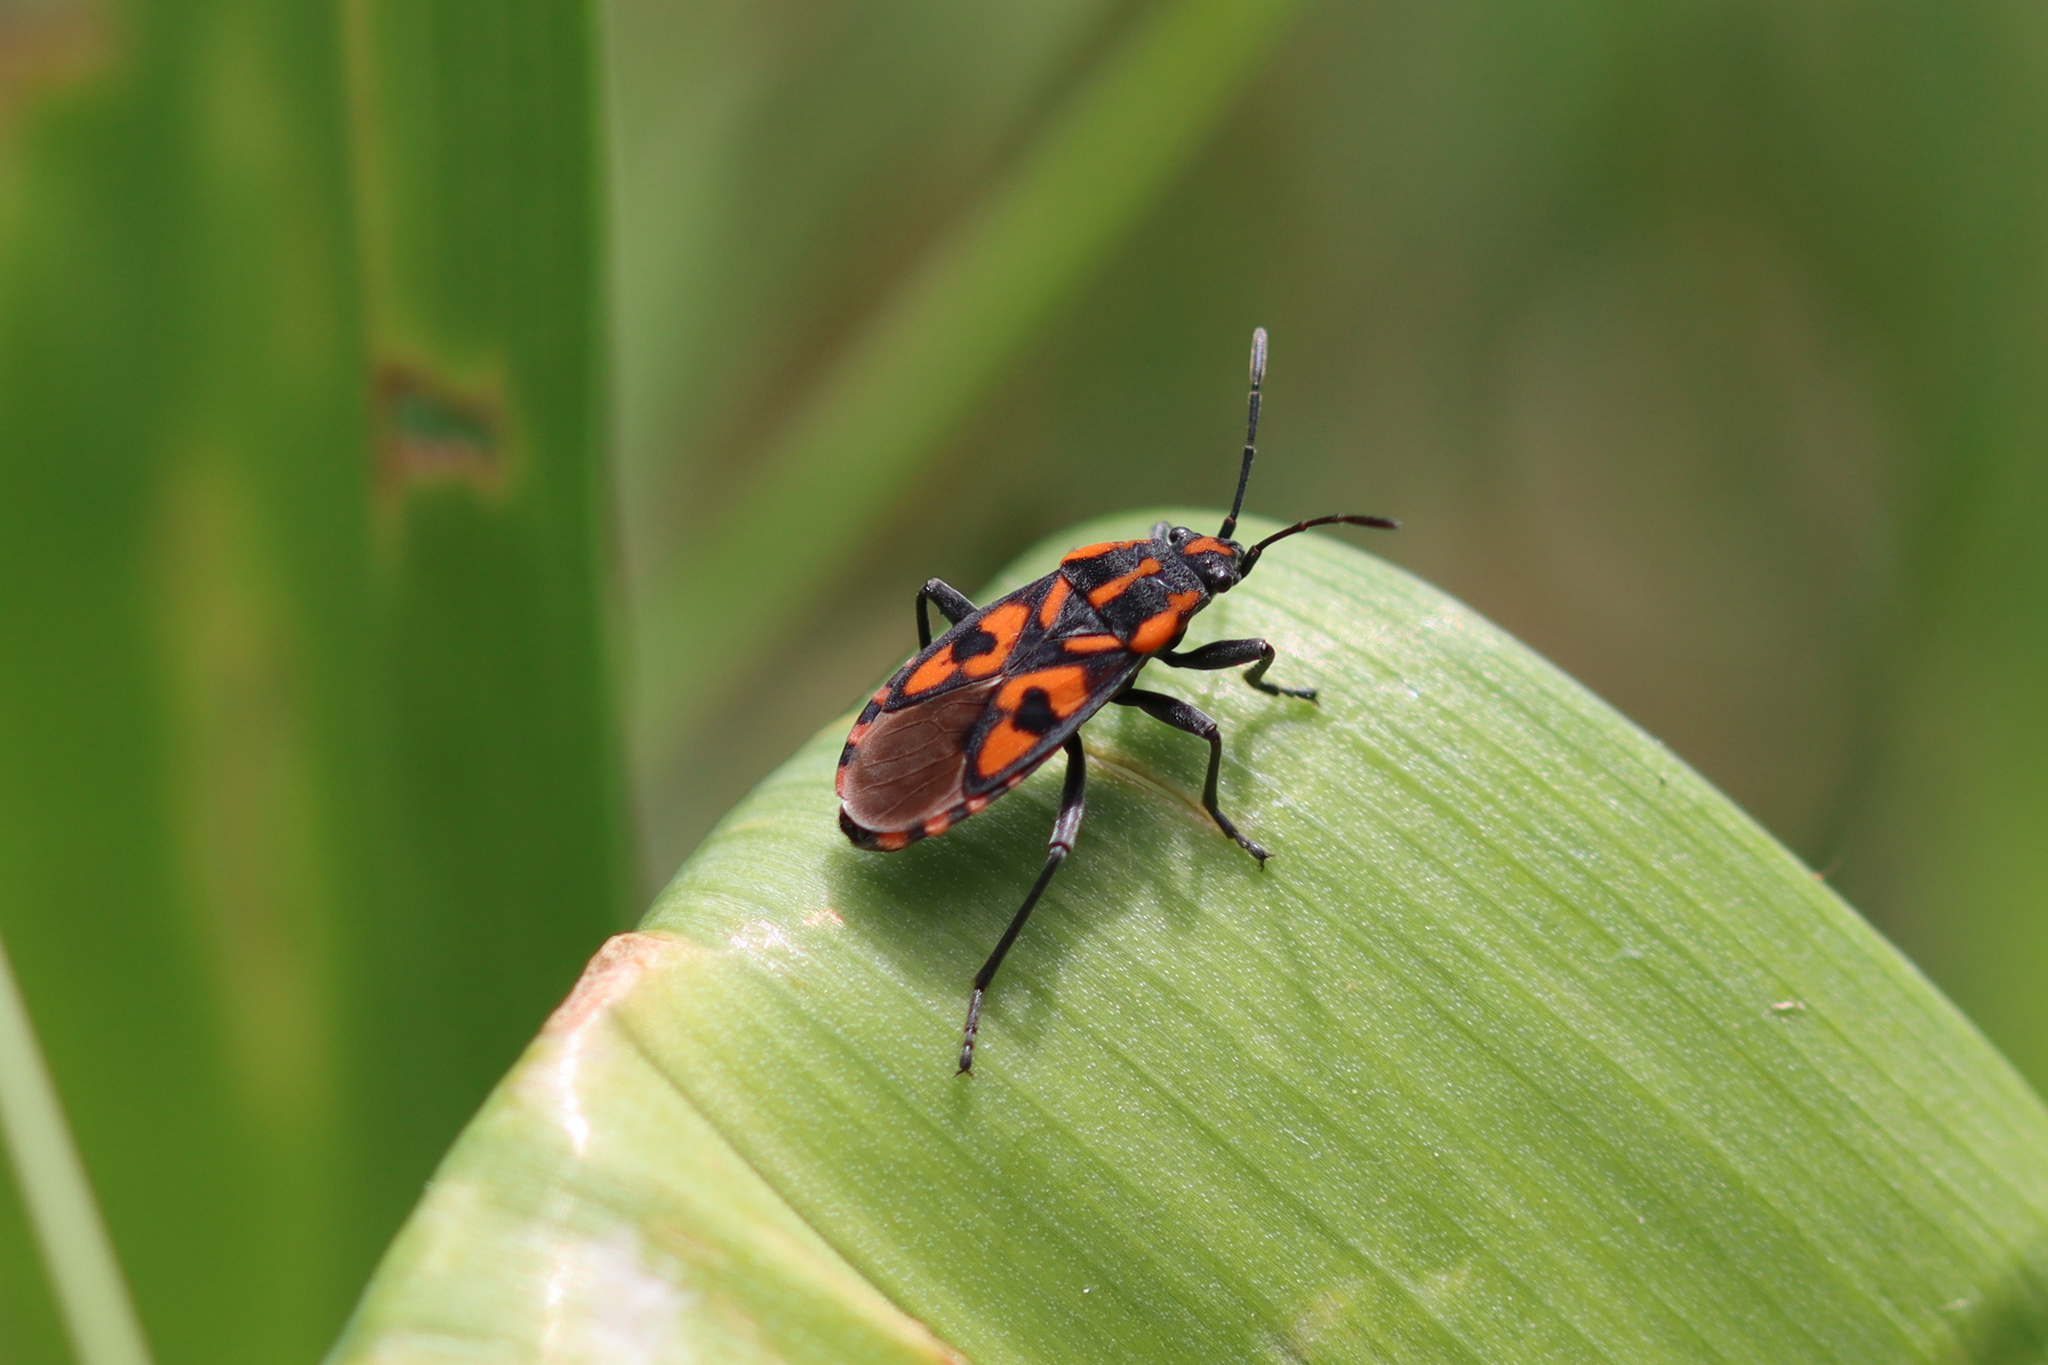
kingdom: Animalia
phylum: Arthropoda
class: Insecta
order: Hemiptera
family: Lygaeidae
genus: Spilostethus
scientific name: Spilostethus saxatilis
